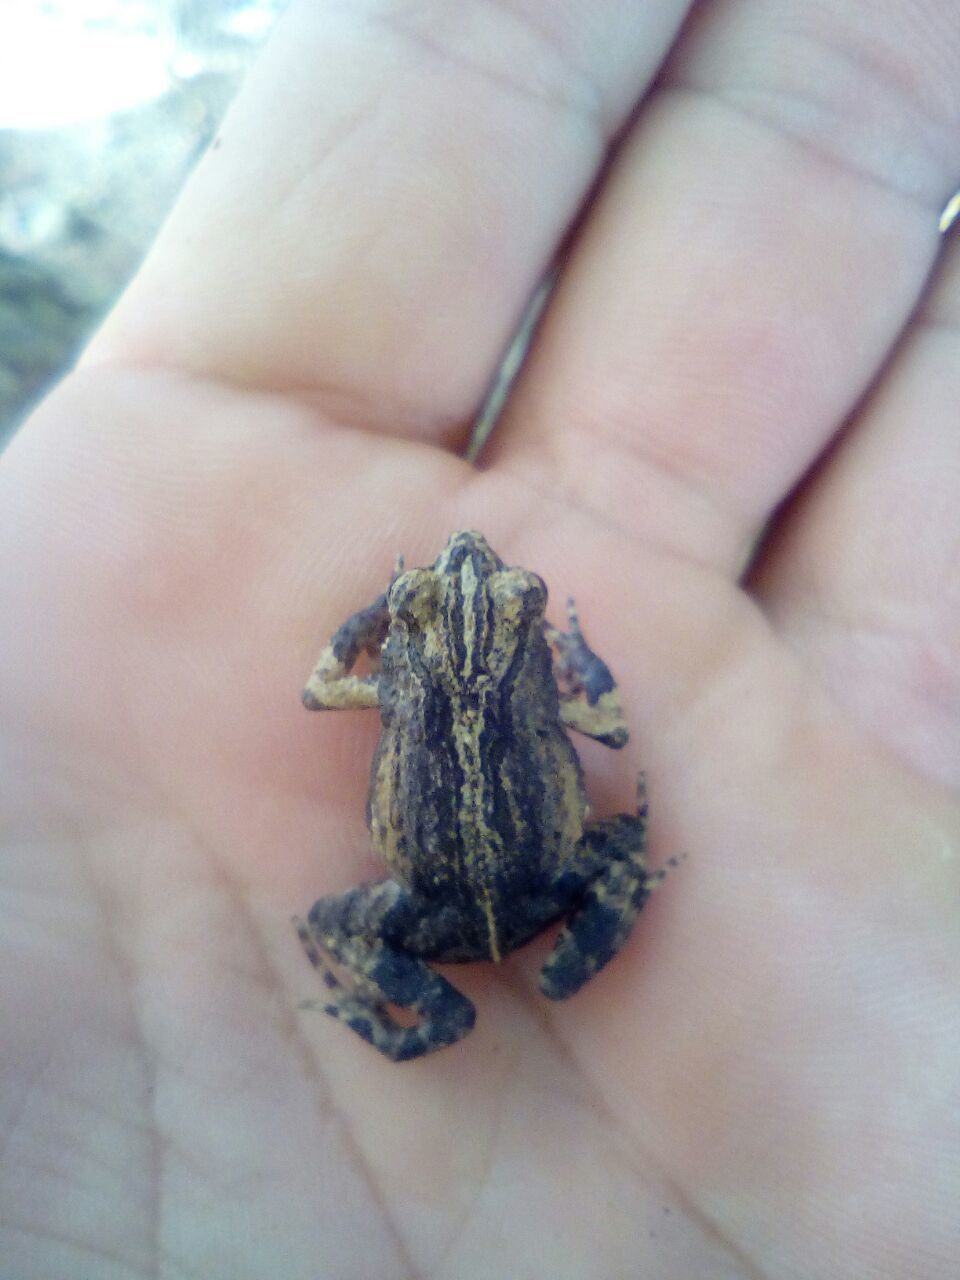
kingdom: Animalia
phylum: Chordata
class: Amphibia
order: Anura
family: Leptodactylidae
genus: Engystomops
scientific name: Engystomops pustulosus
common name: Tungara frog
